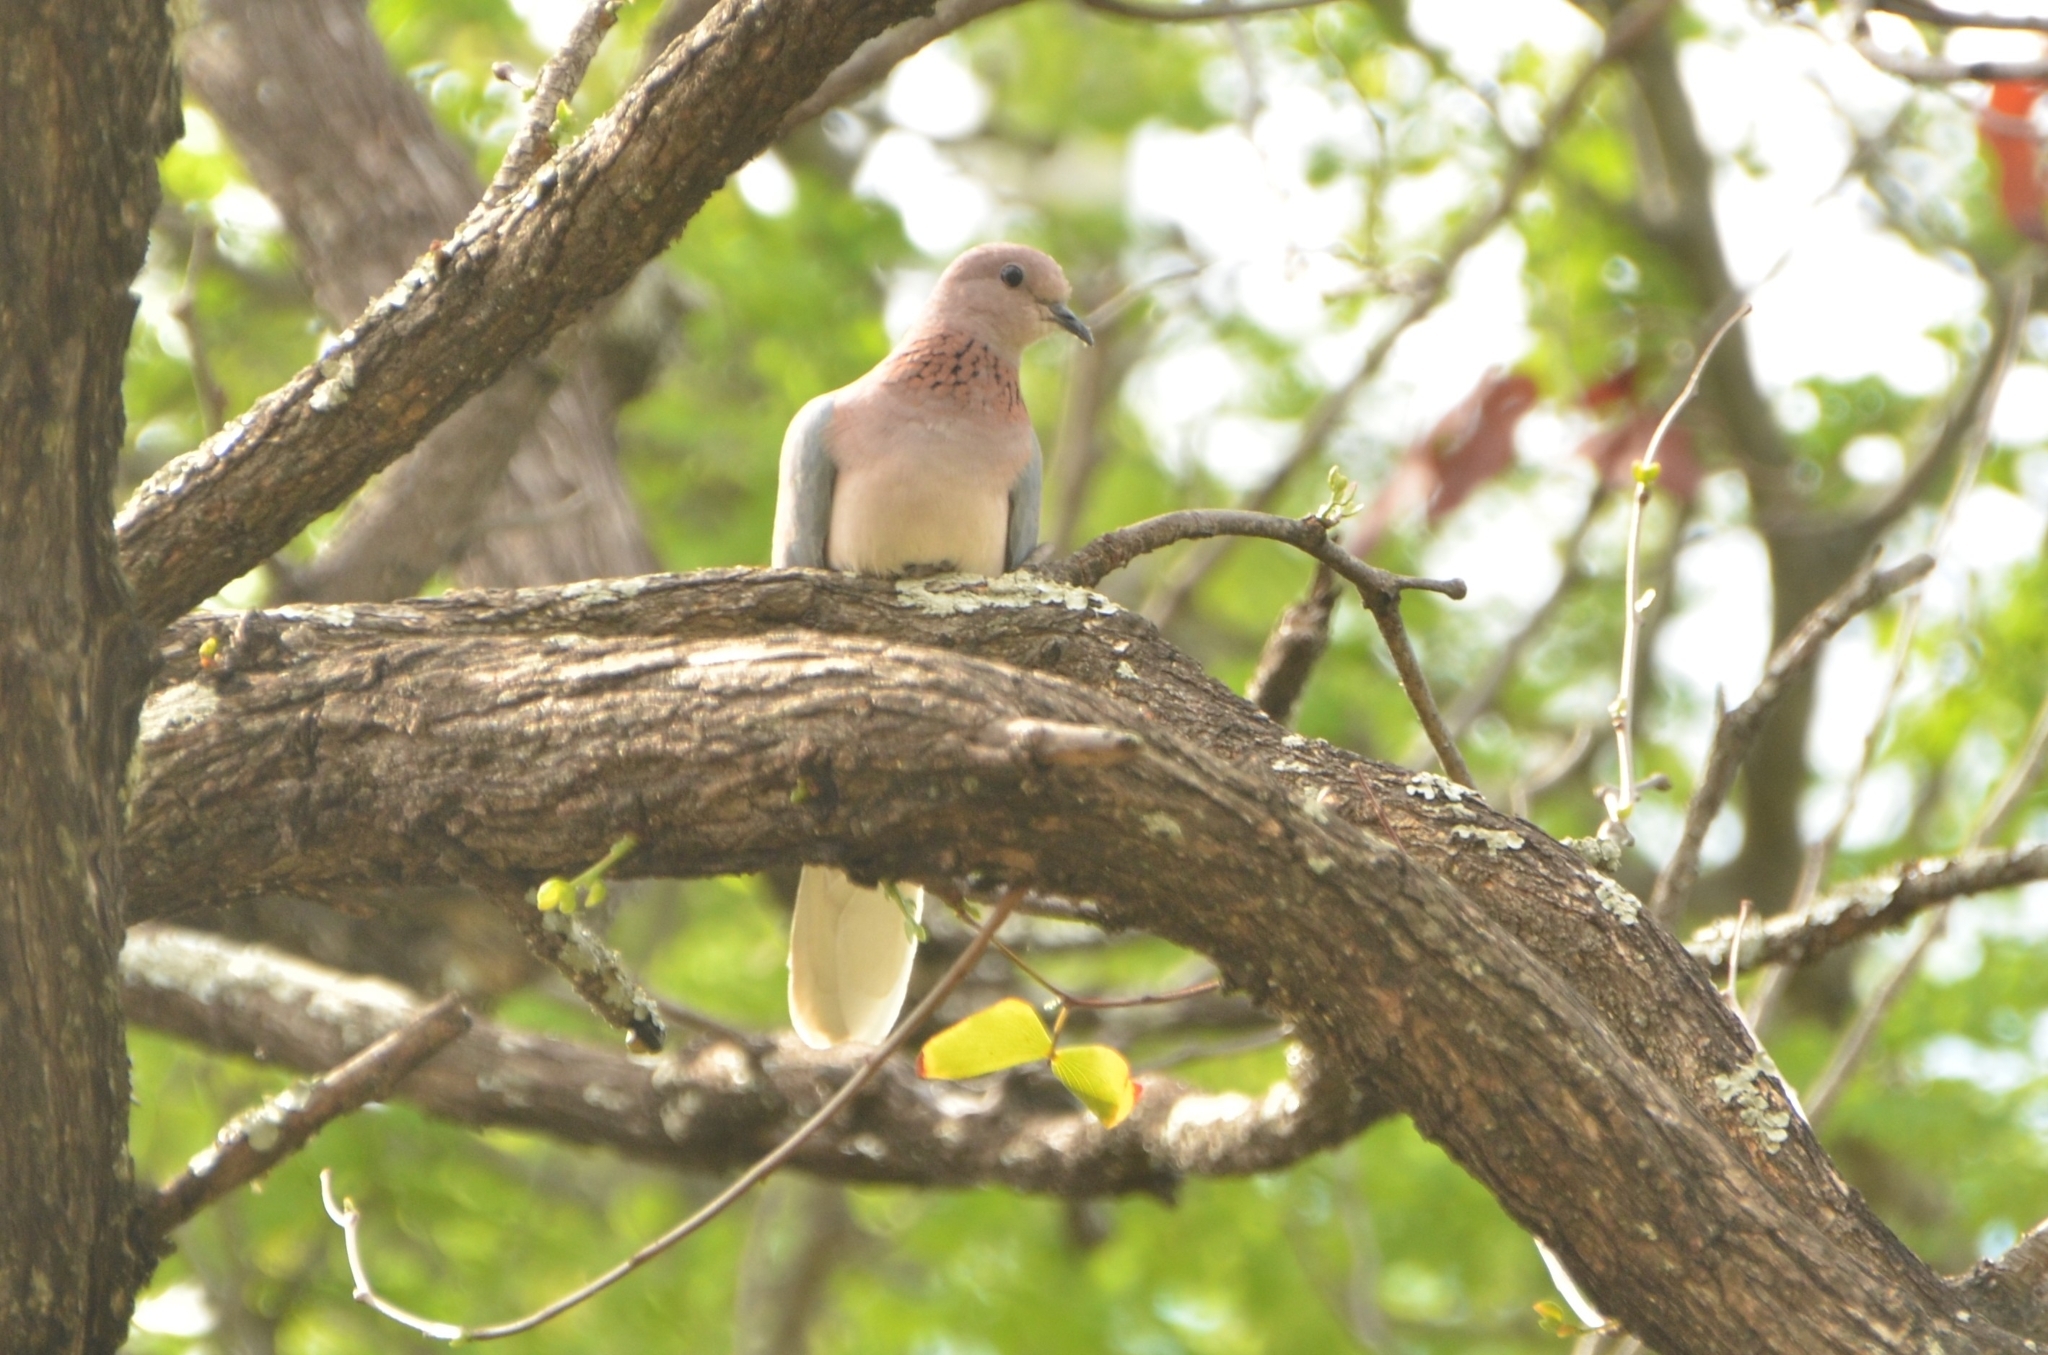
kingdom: Animalia
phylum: Chordata
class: Aves
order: Columbiformes
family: Columbidae
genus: Spilopelia
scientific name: Spilopelia senegalensis
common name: Laughing dove
